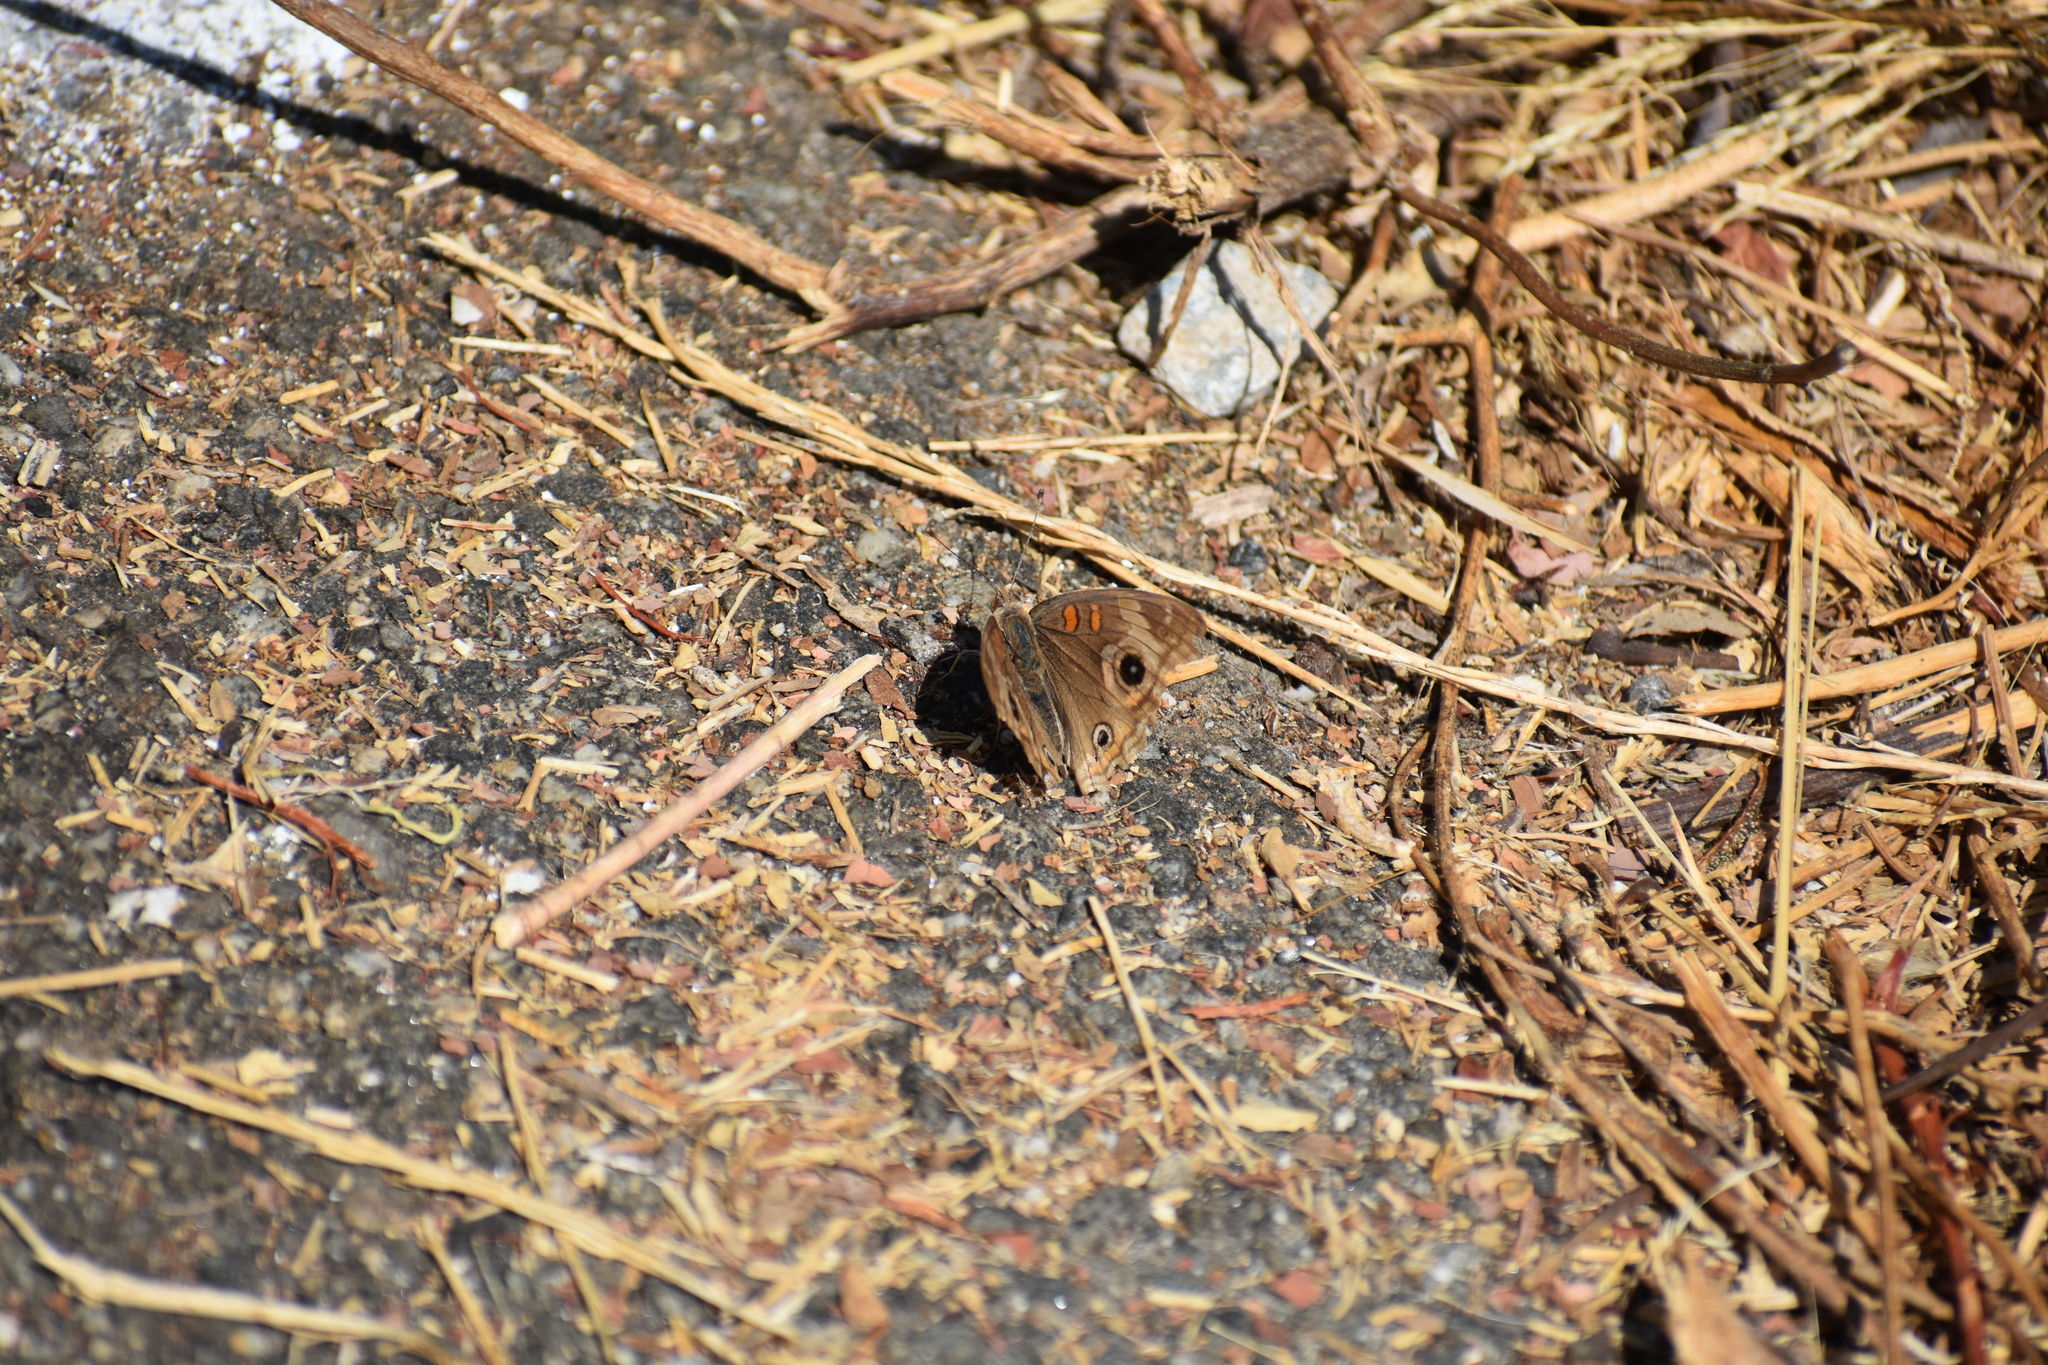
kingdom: Animalia
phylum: Arthropoda
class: Insecta
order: Lepidoptera
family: Nymphalidae
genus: Junonia
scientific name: Junonia grisea
